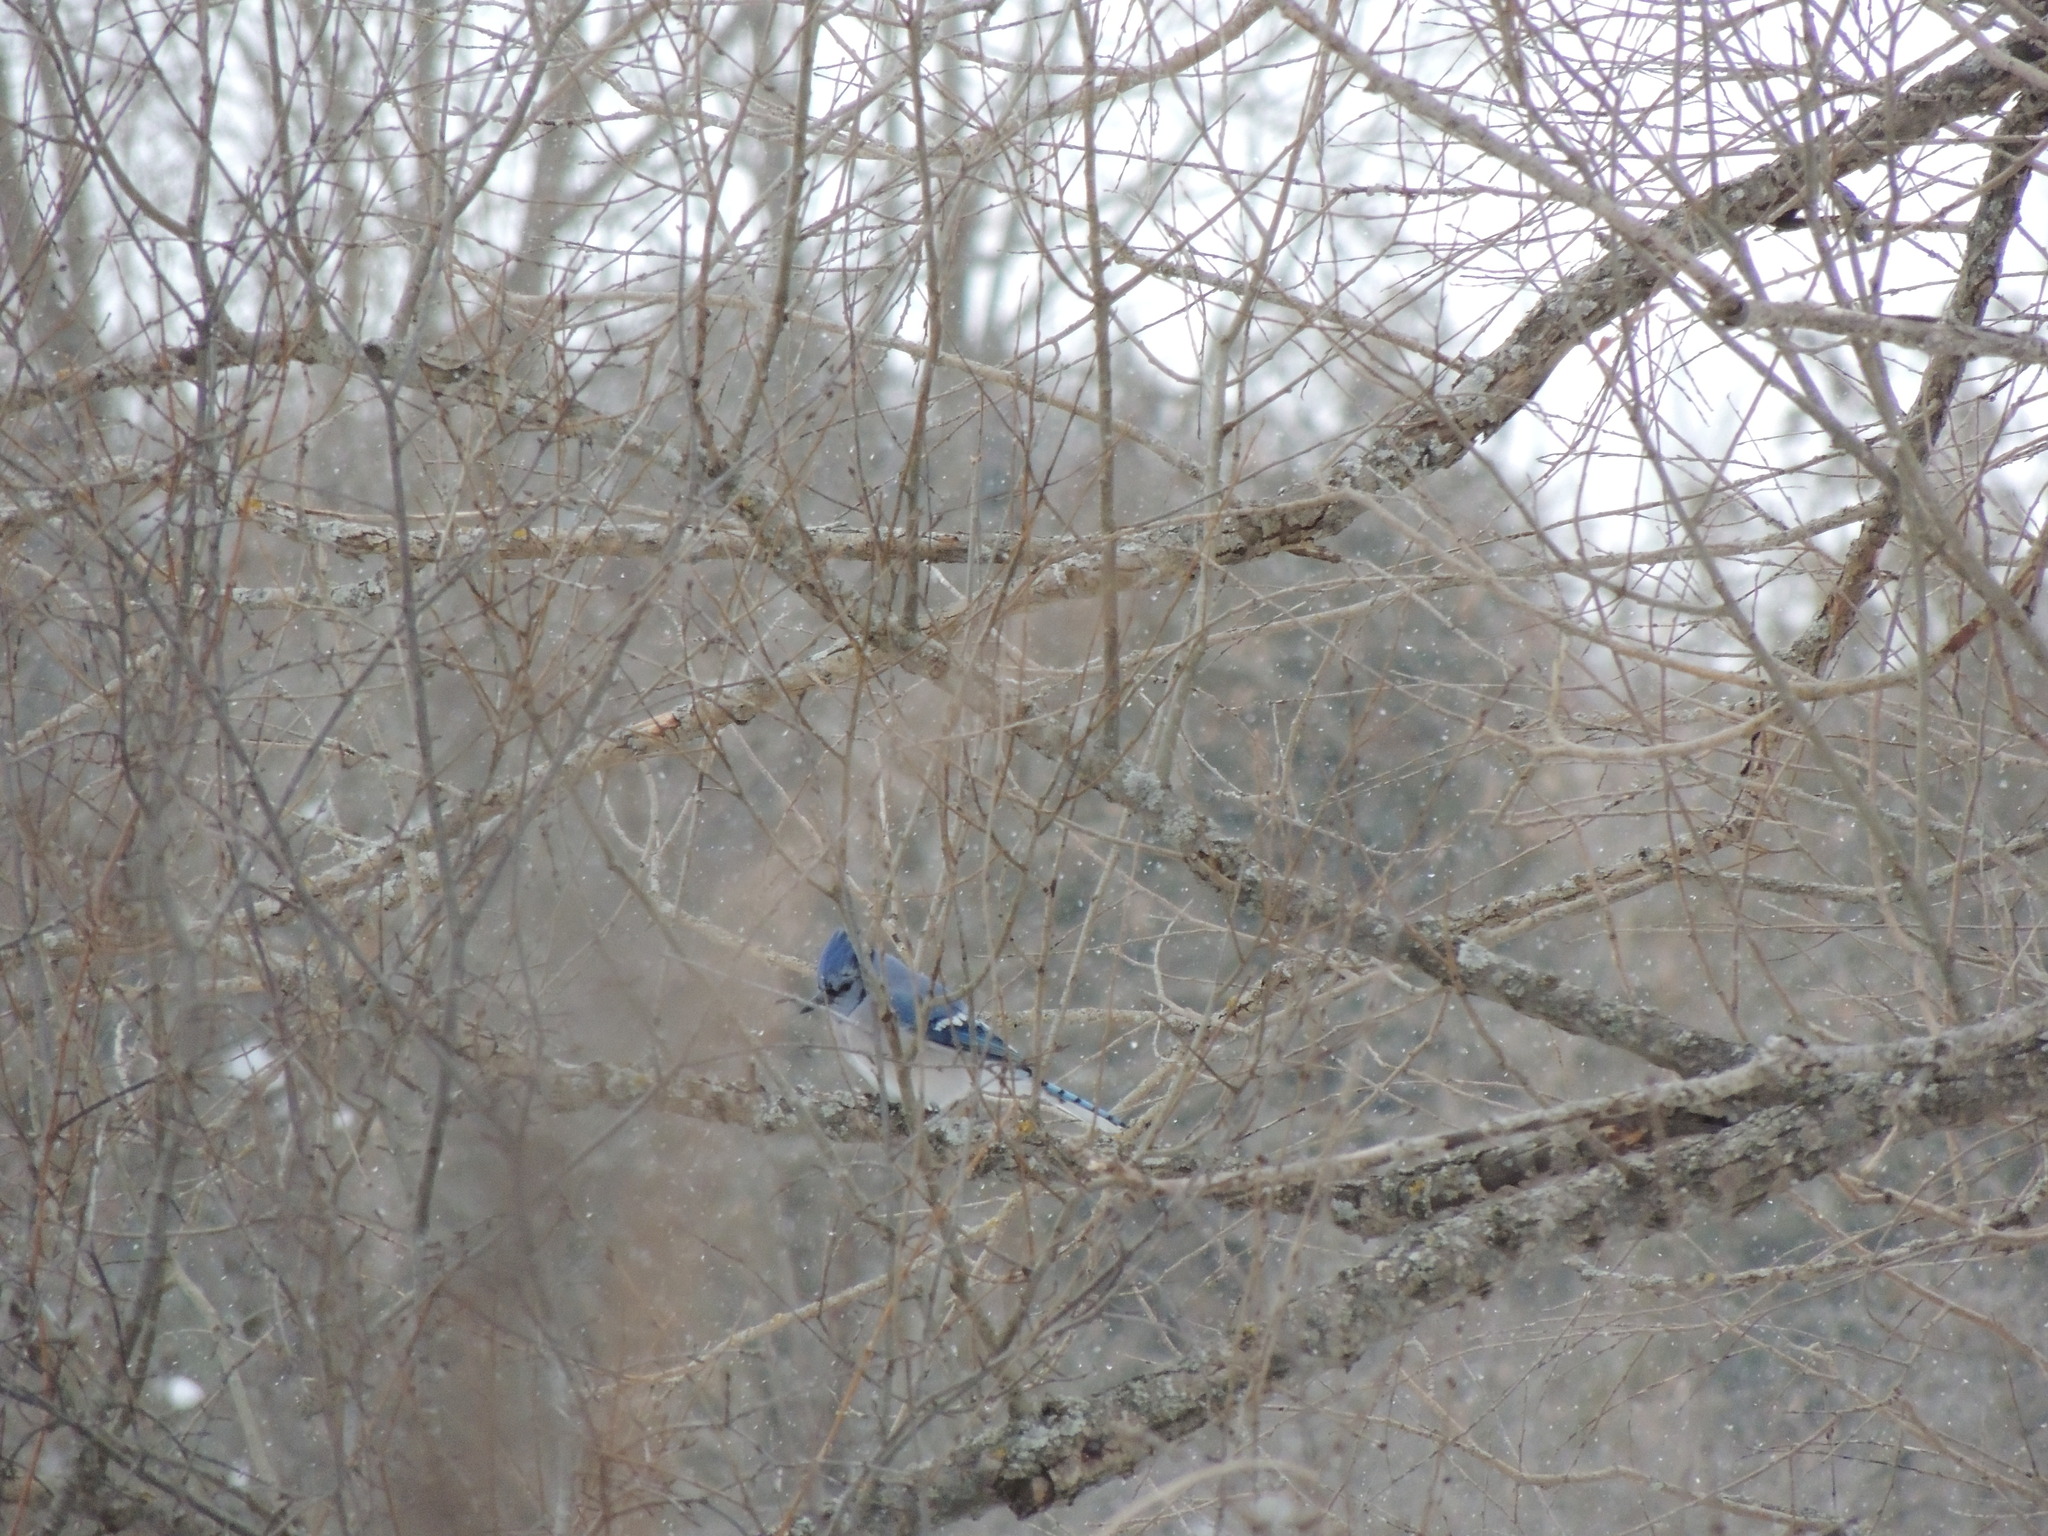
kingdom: Animalia
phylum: Chordata
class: Aves
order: Passeriformes
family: Corvidae
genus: Cyanocitta
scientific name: Cyanocitta cristata
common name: Blue jay
